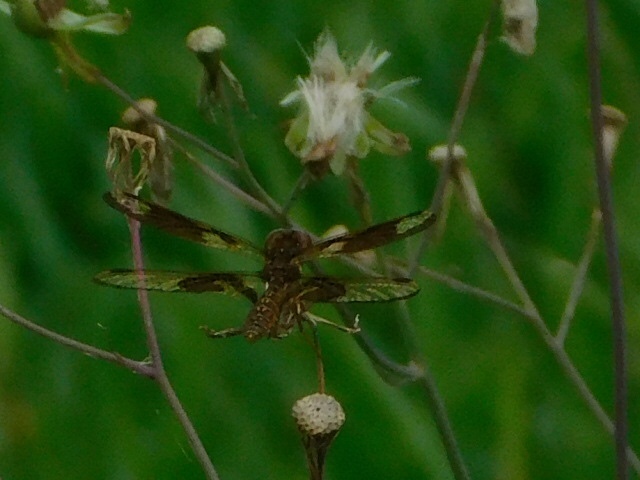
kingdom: Animalia
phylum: Arthropoda
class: Insecta
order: Odonata
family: Libellulidae
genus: Perithemis
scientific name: Perithemis tenera
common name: Eastern amberwing
